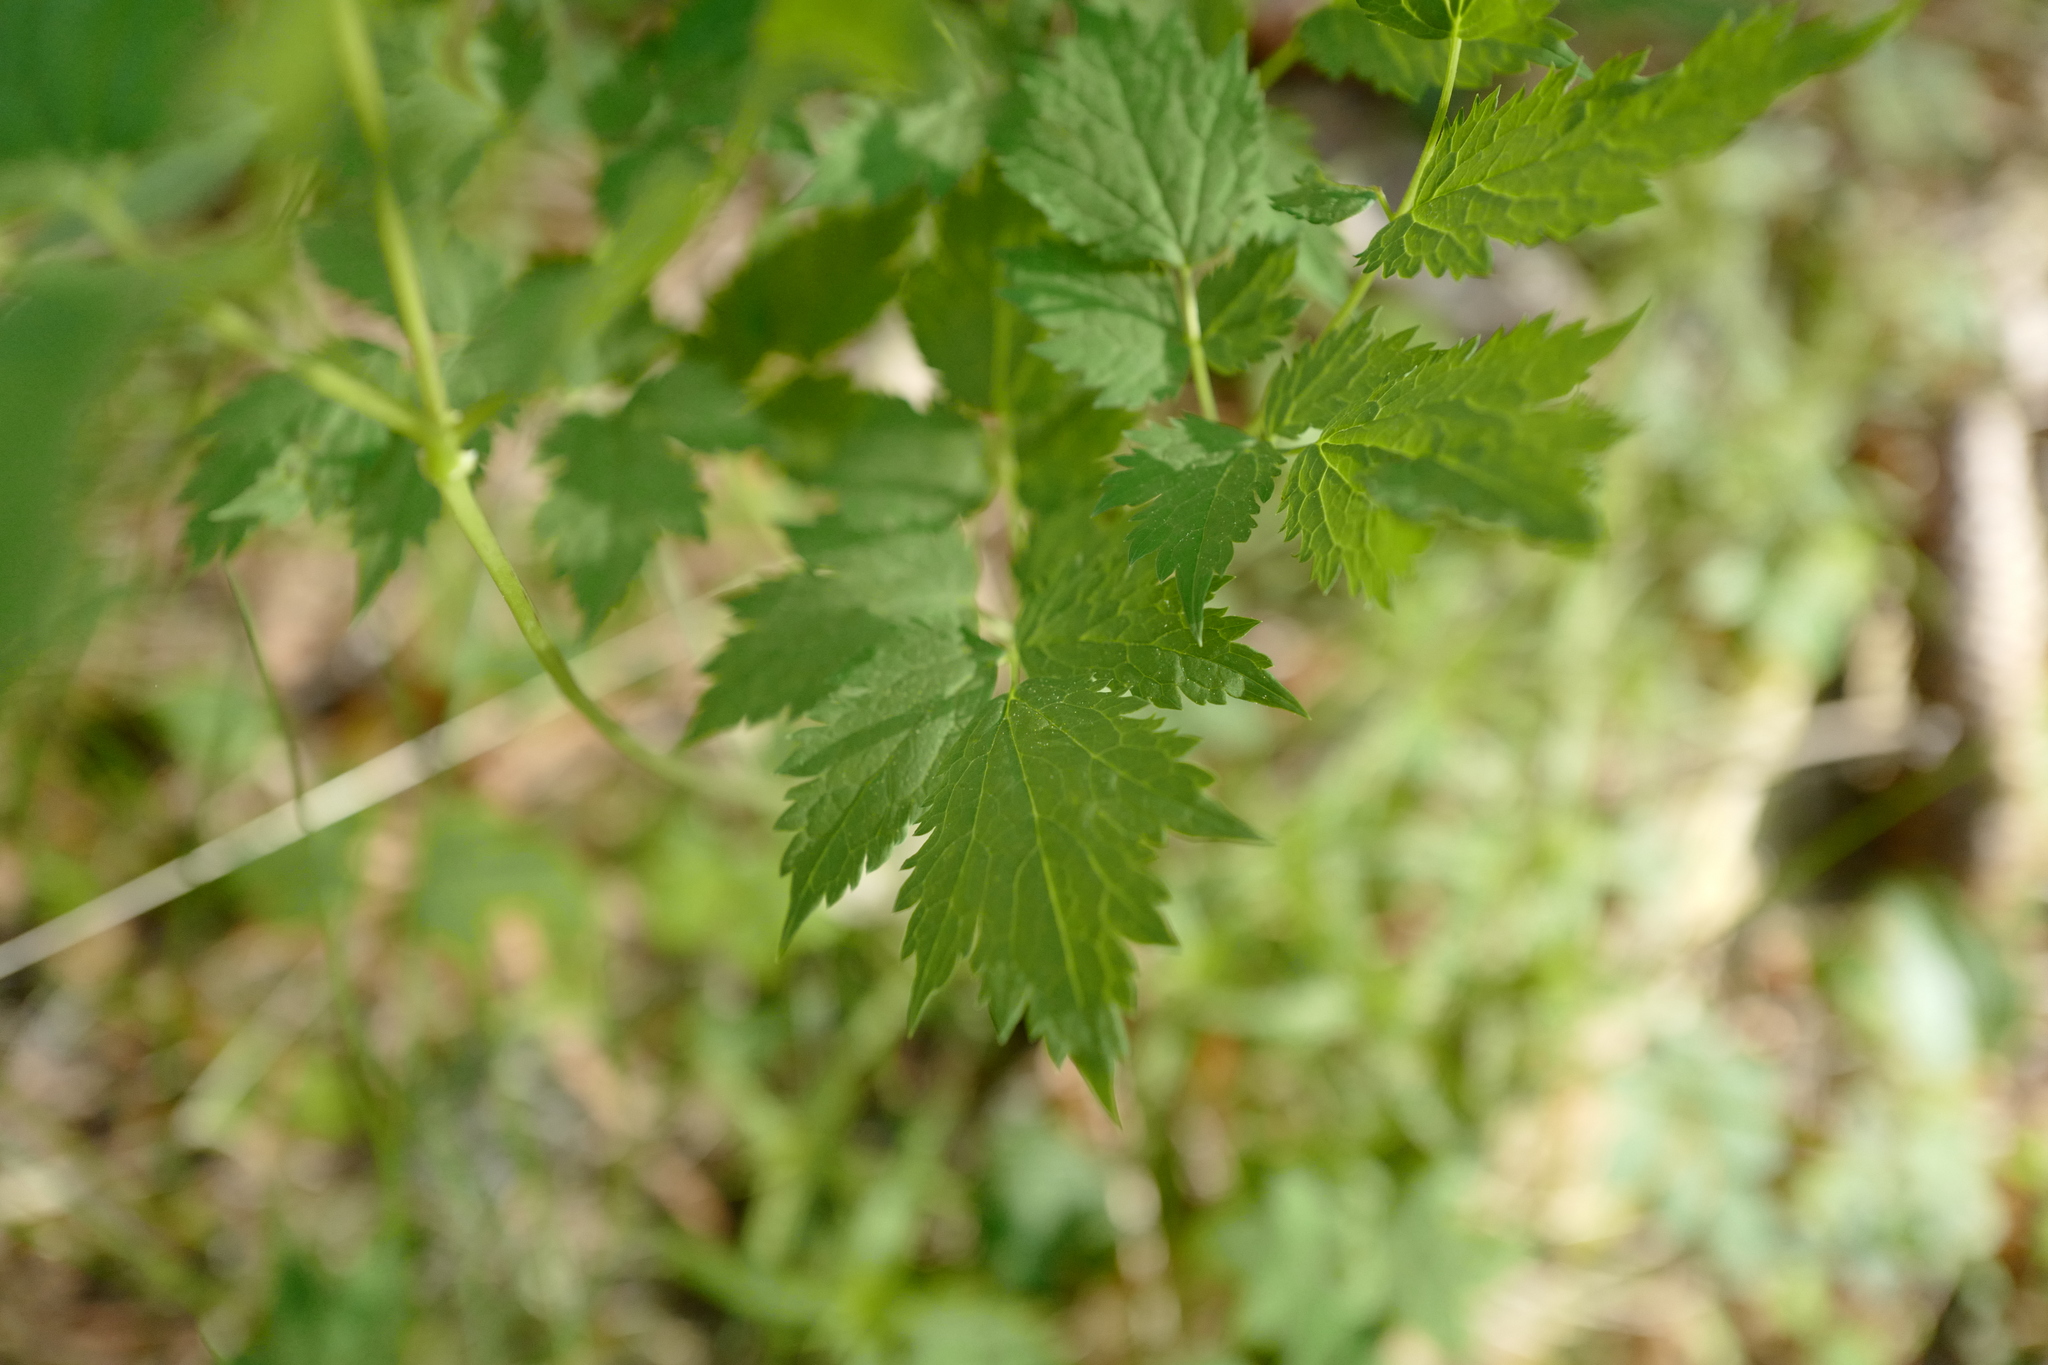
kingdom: Plantae
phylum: Tracheophyta
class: Magnoliopsida
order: Ranunculales
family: Ranunculaceae
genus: Actaea
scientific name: Actaea spicata
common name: Baneberry
